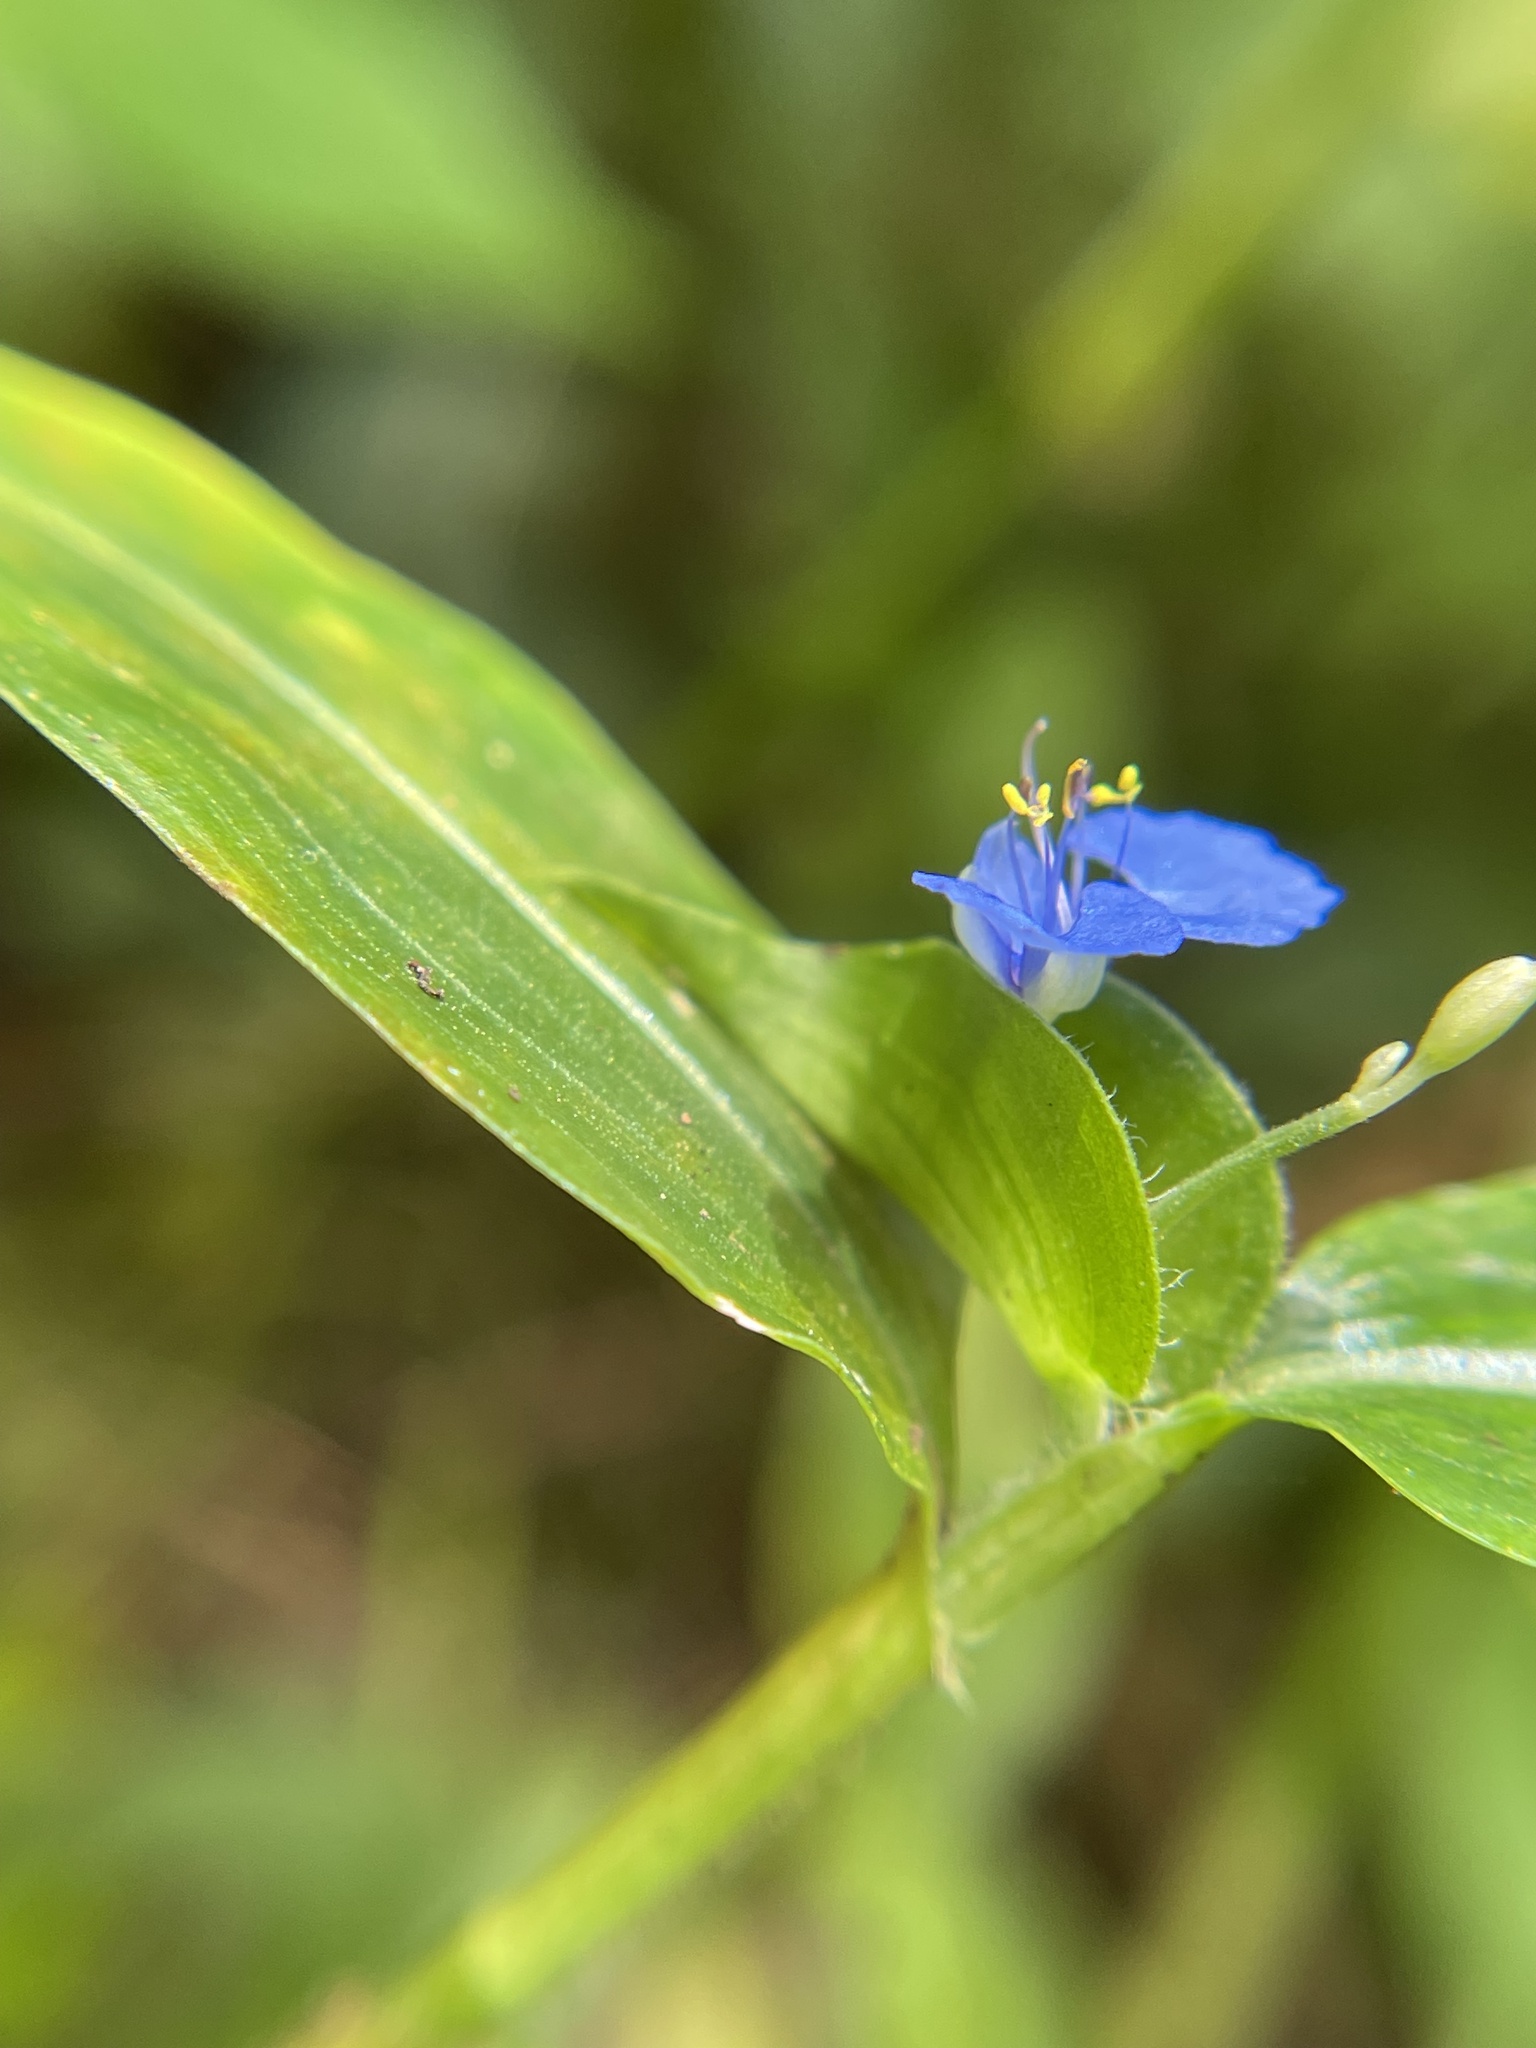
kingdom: Plantae
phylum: Tracheophyta
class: Liliopsida
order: Commelinales
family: Commelinaceae
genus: Commelina
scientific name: Commelina diffusa
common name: Climbing dayflower
